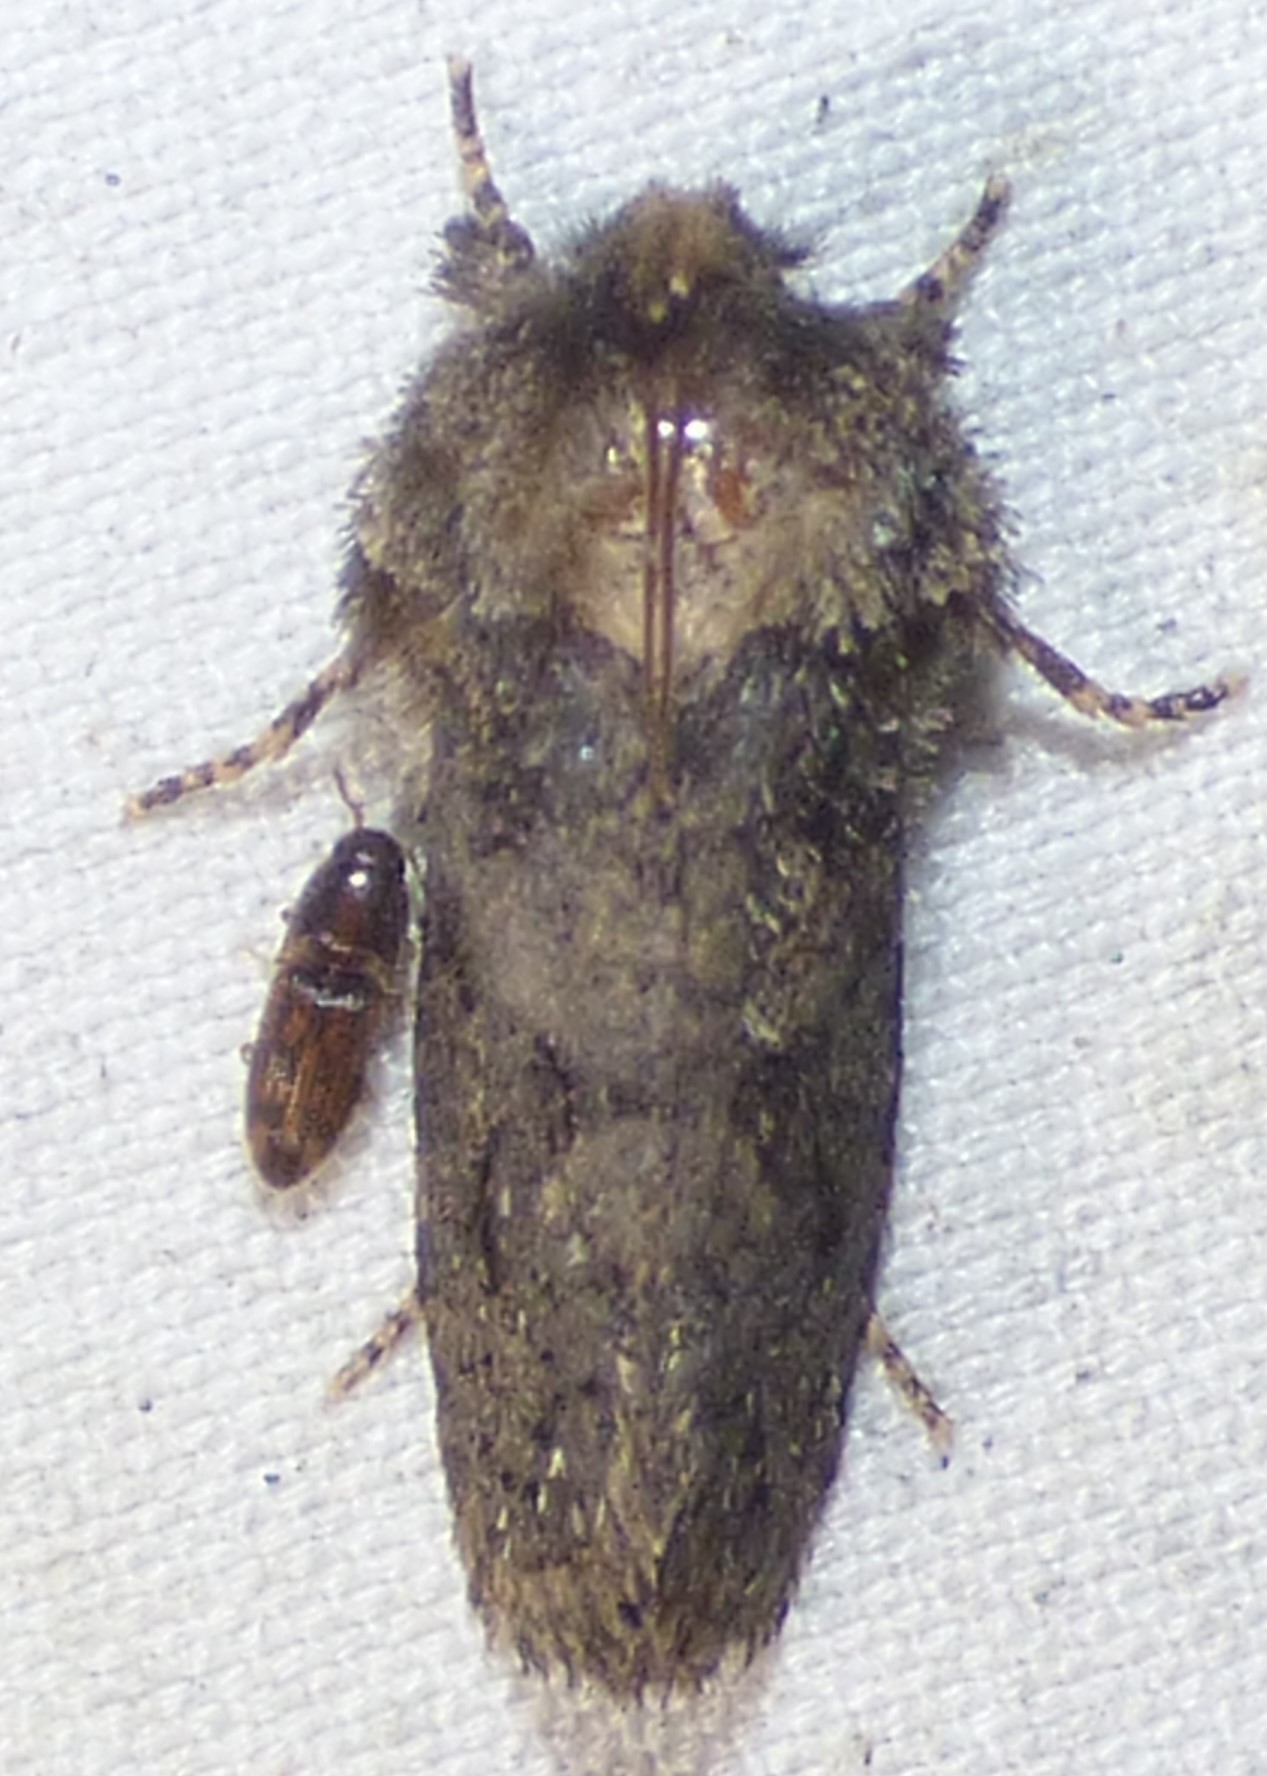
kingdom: Animalia
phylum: Arthropoda
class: Insecta
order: Lepidoptera
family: Tineidae
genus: Acrolophus
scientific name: Acrolophus arcanella
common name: Arcane grass tubeworm moth
